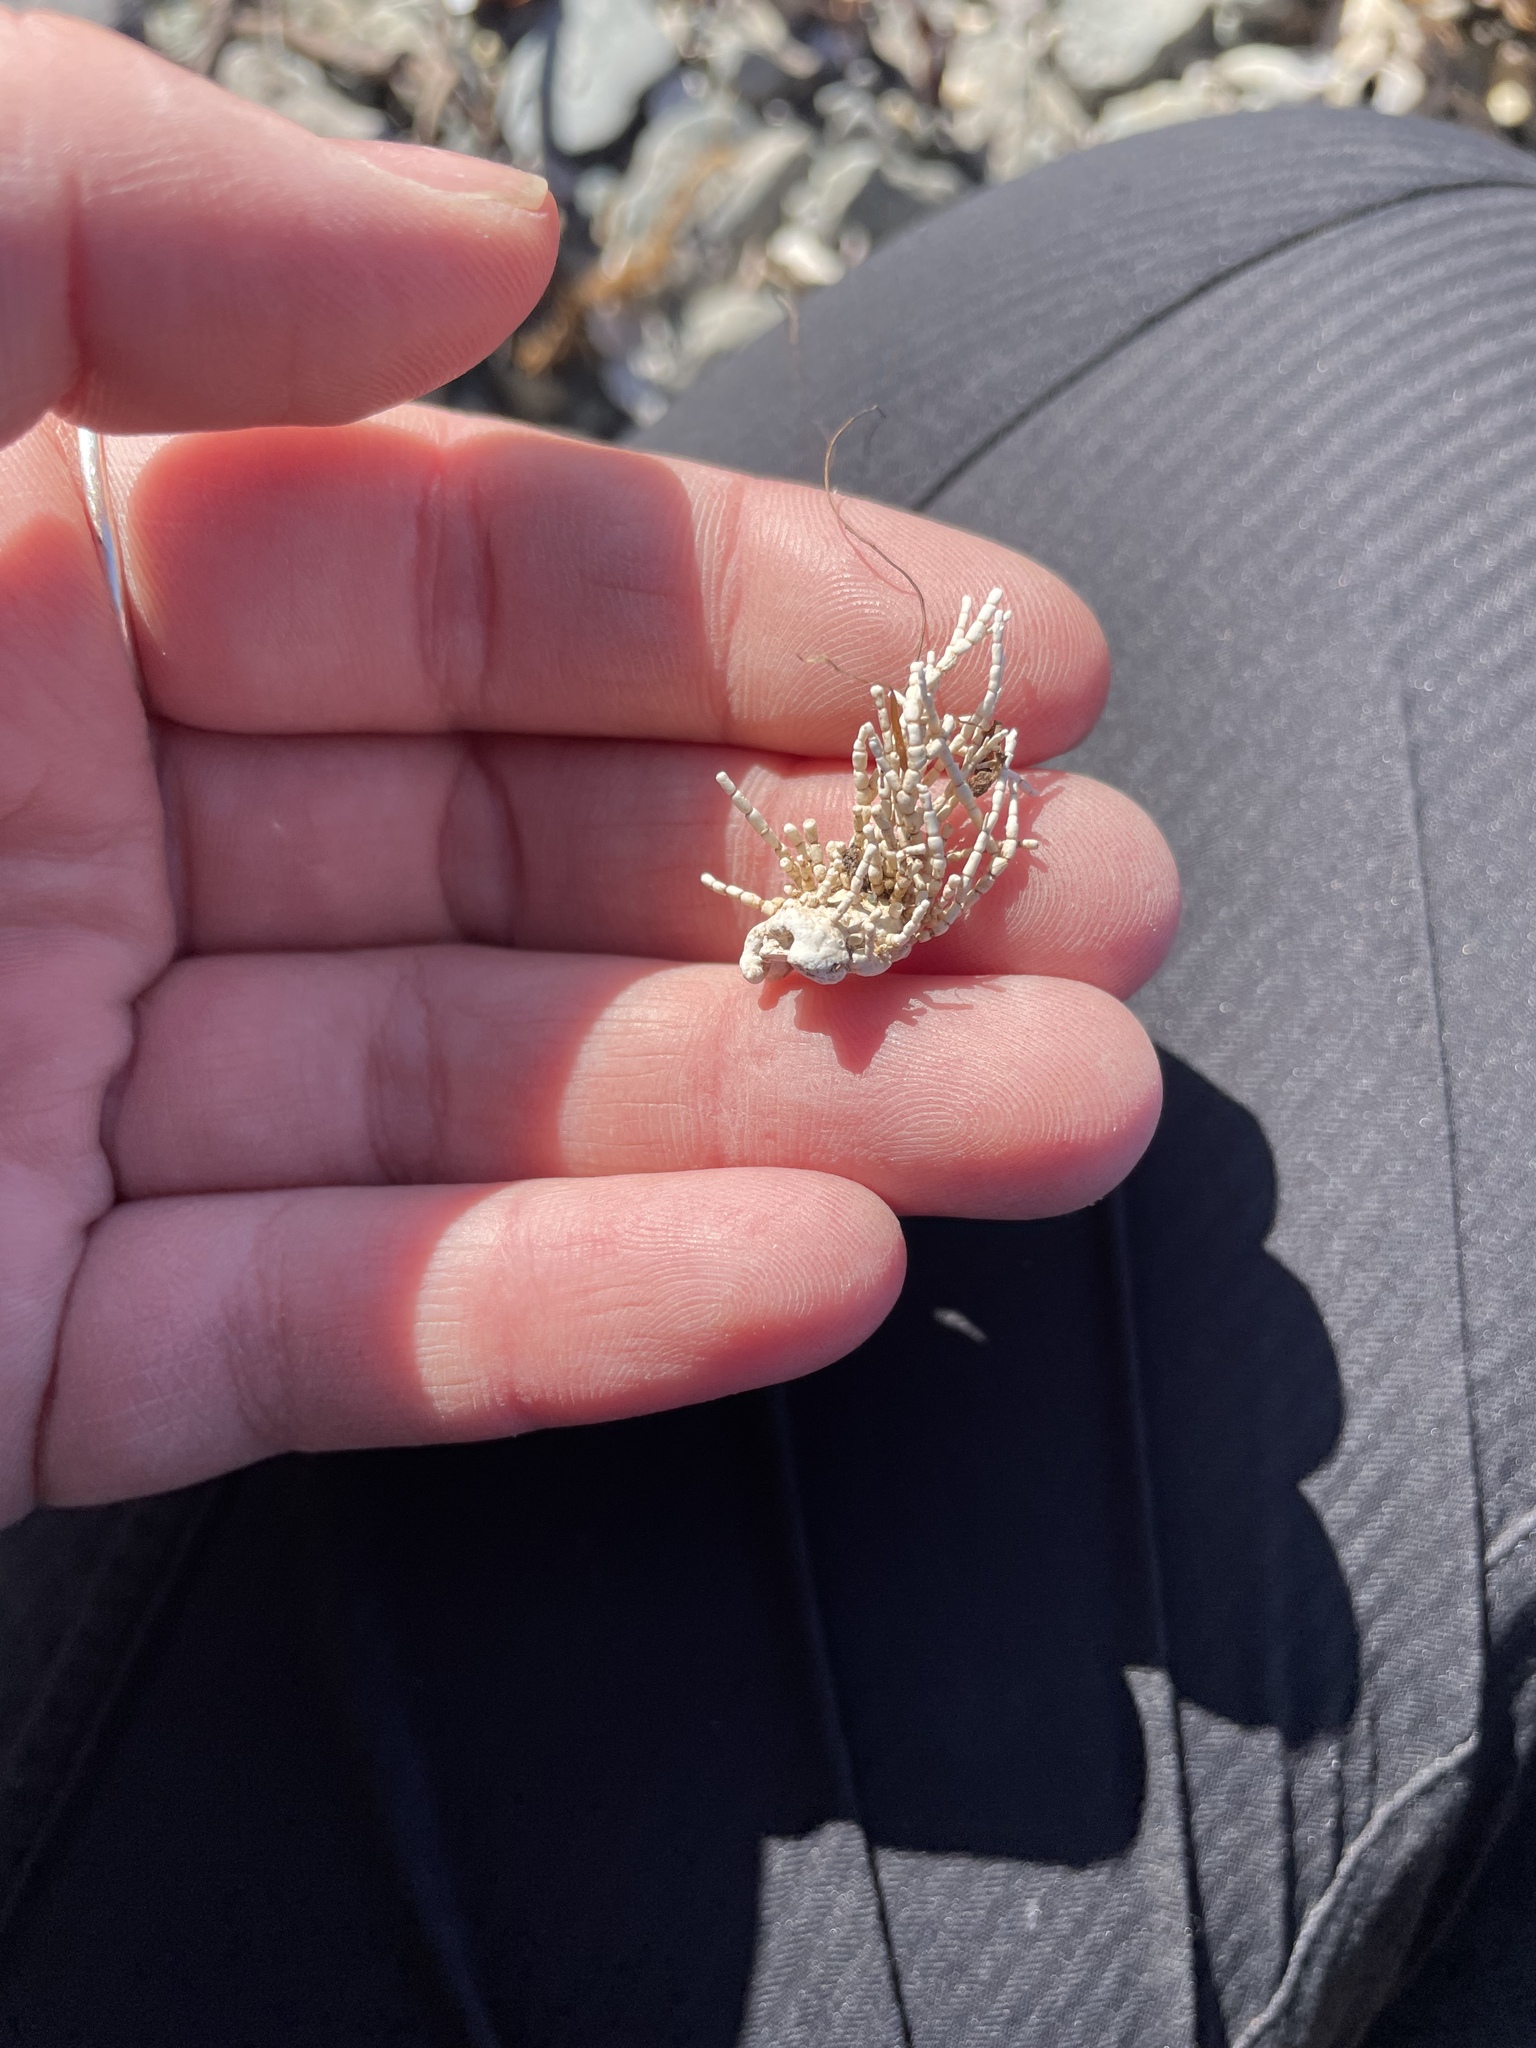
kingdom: Plantae
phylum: Rhodophyta
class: Florideophyceae
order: Corallinales
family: Corallinaceae
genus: Corallina
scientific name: Corallina officinalis
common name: Coral weed
